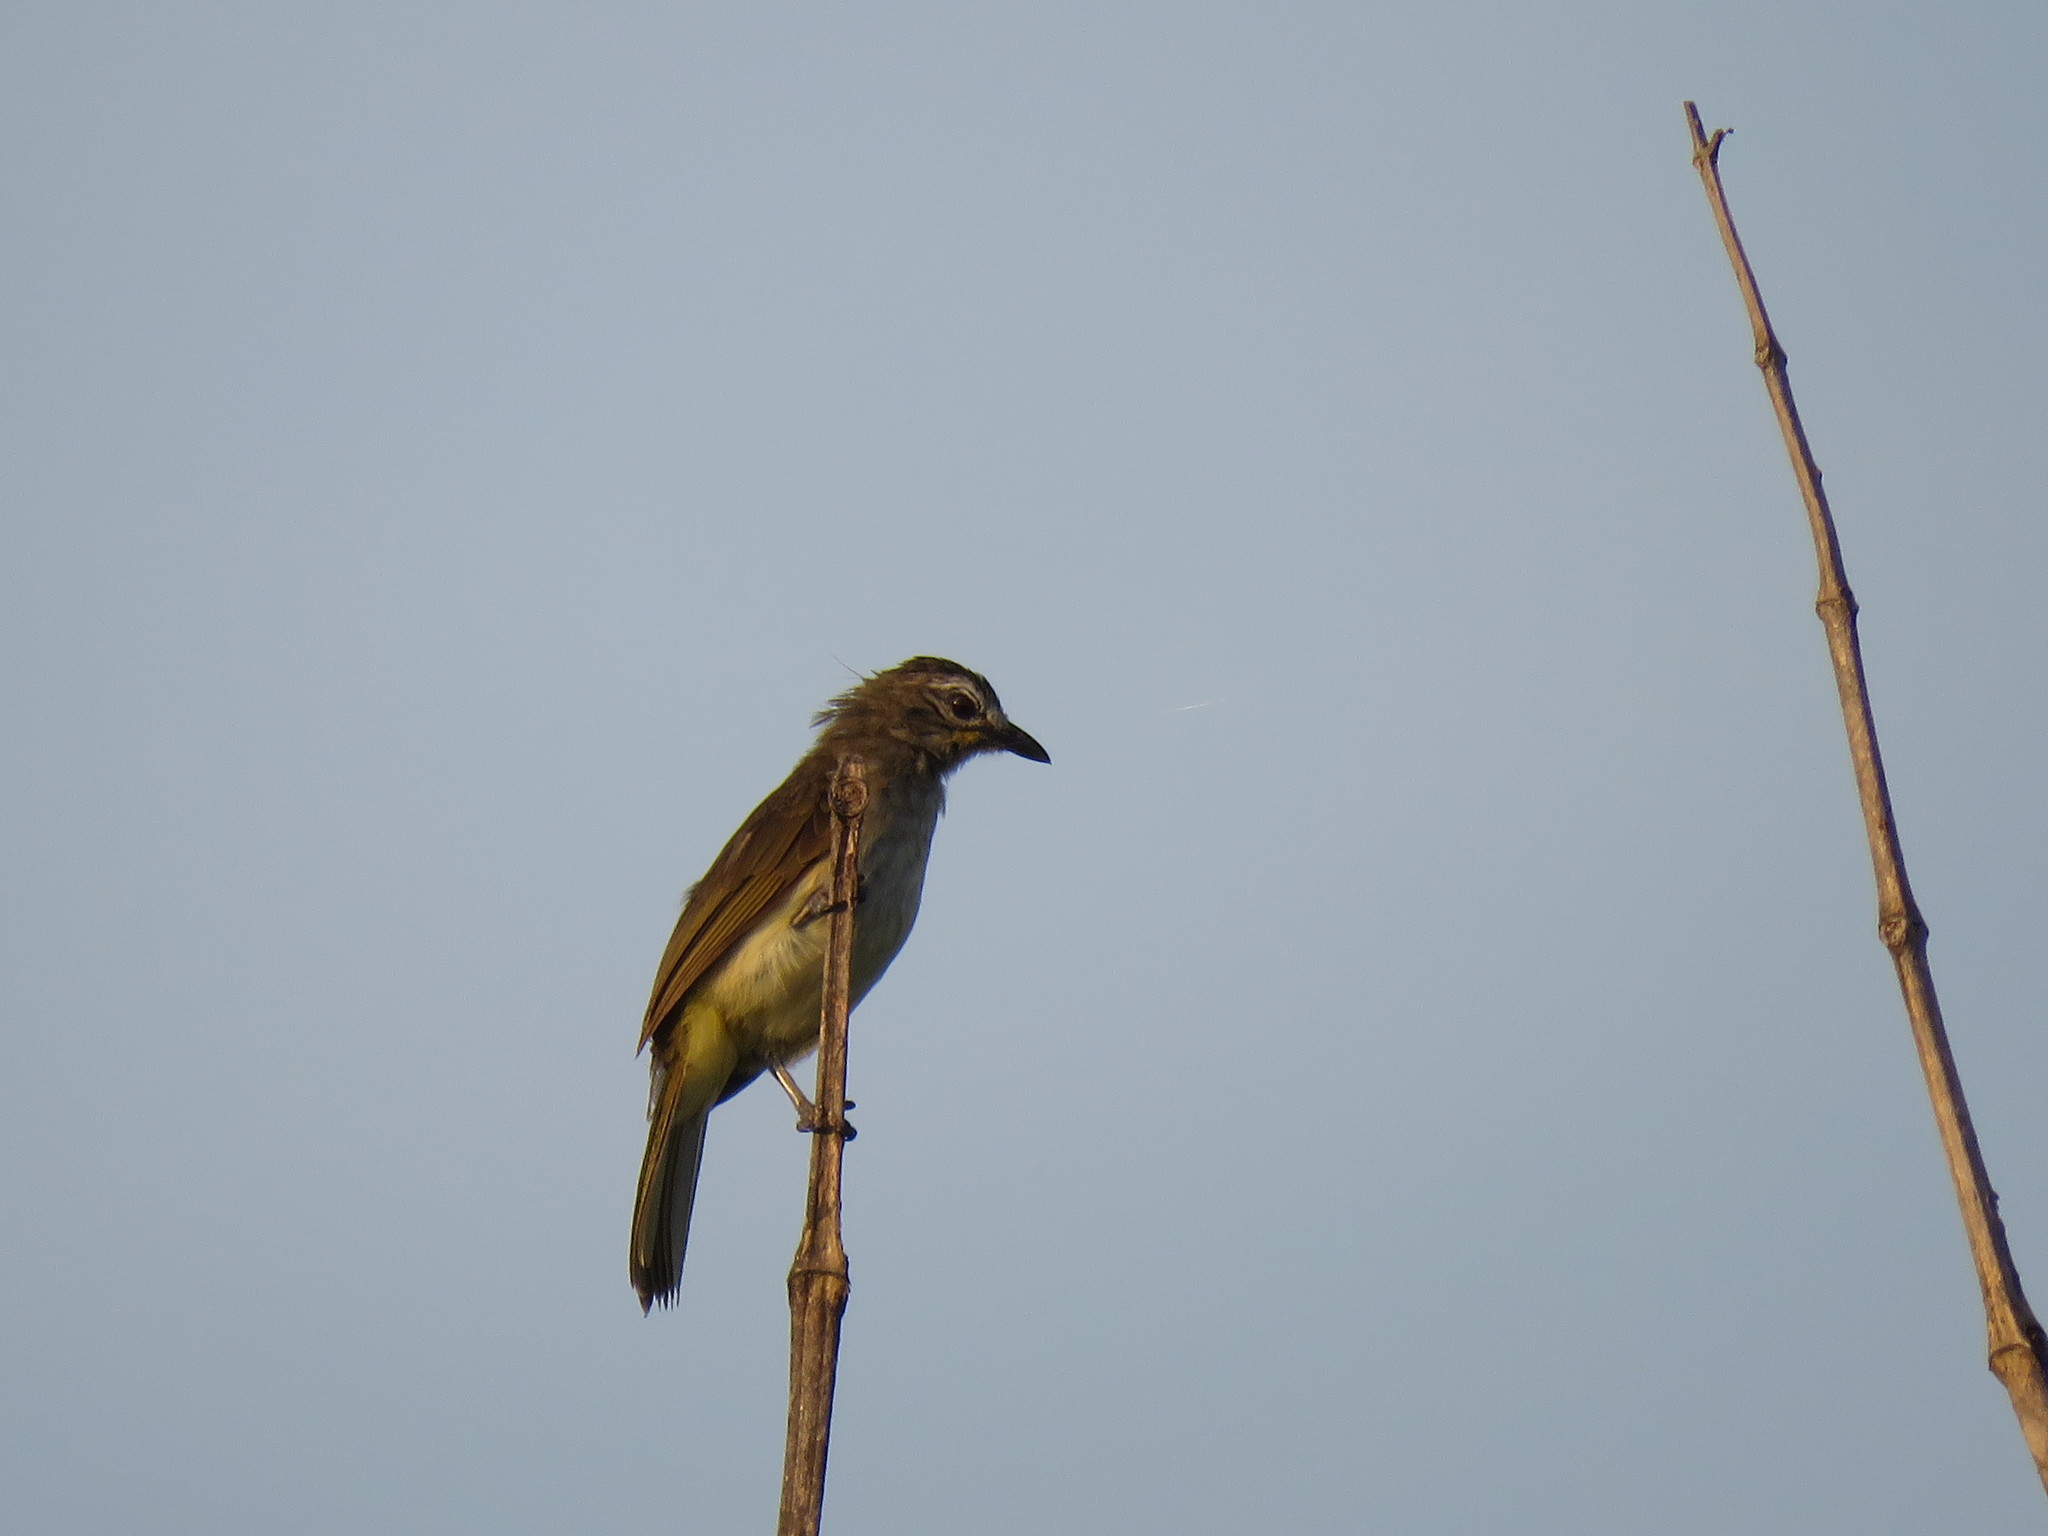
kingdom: Animalia
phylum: Chordata
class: Aves
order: Passeriformes
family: Pycnonotidae
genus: Pycnonotus
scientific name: Pycnonotus luteolus
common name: White-browed bulbul
